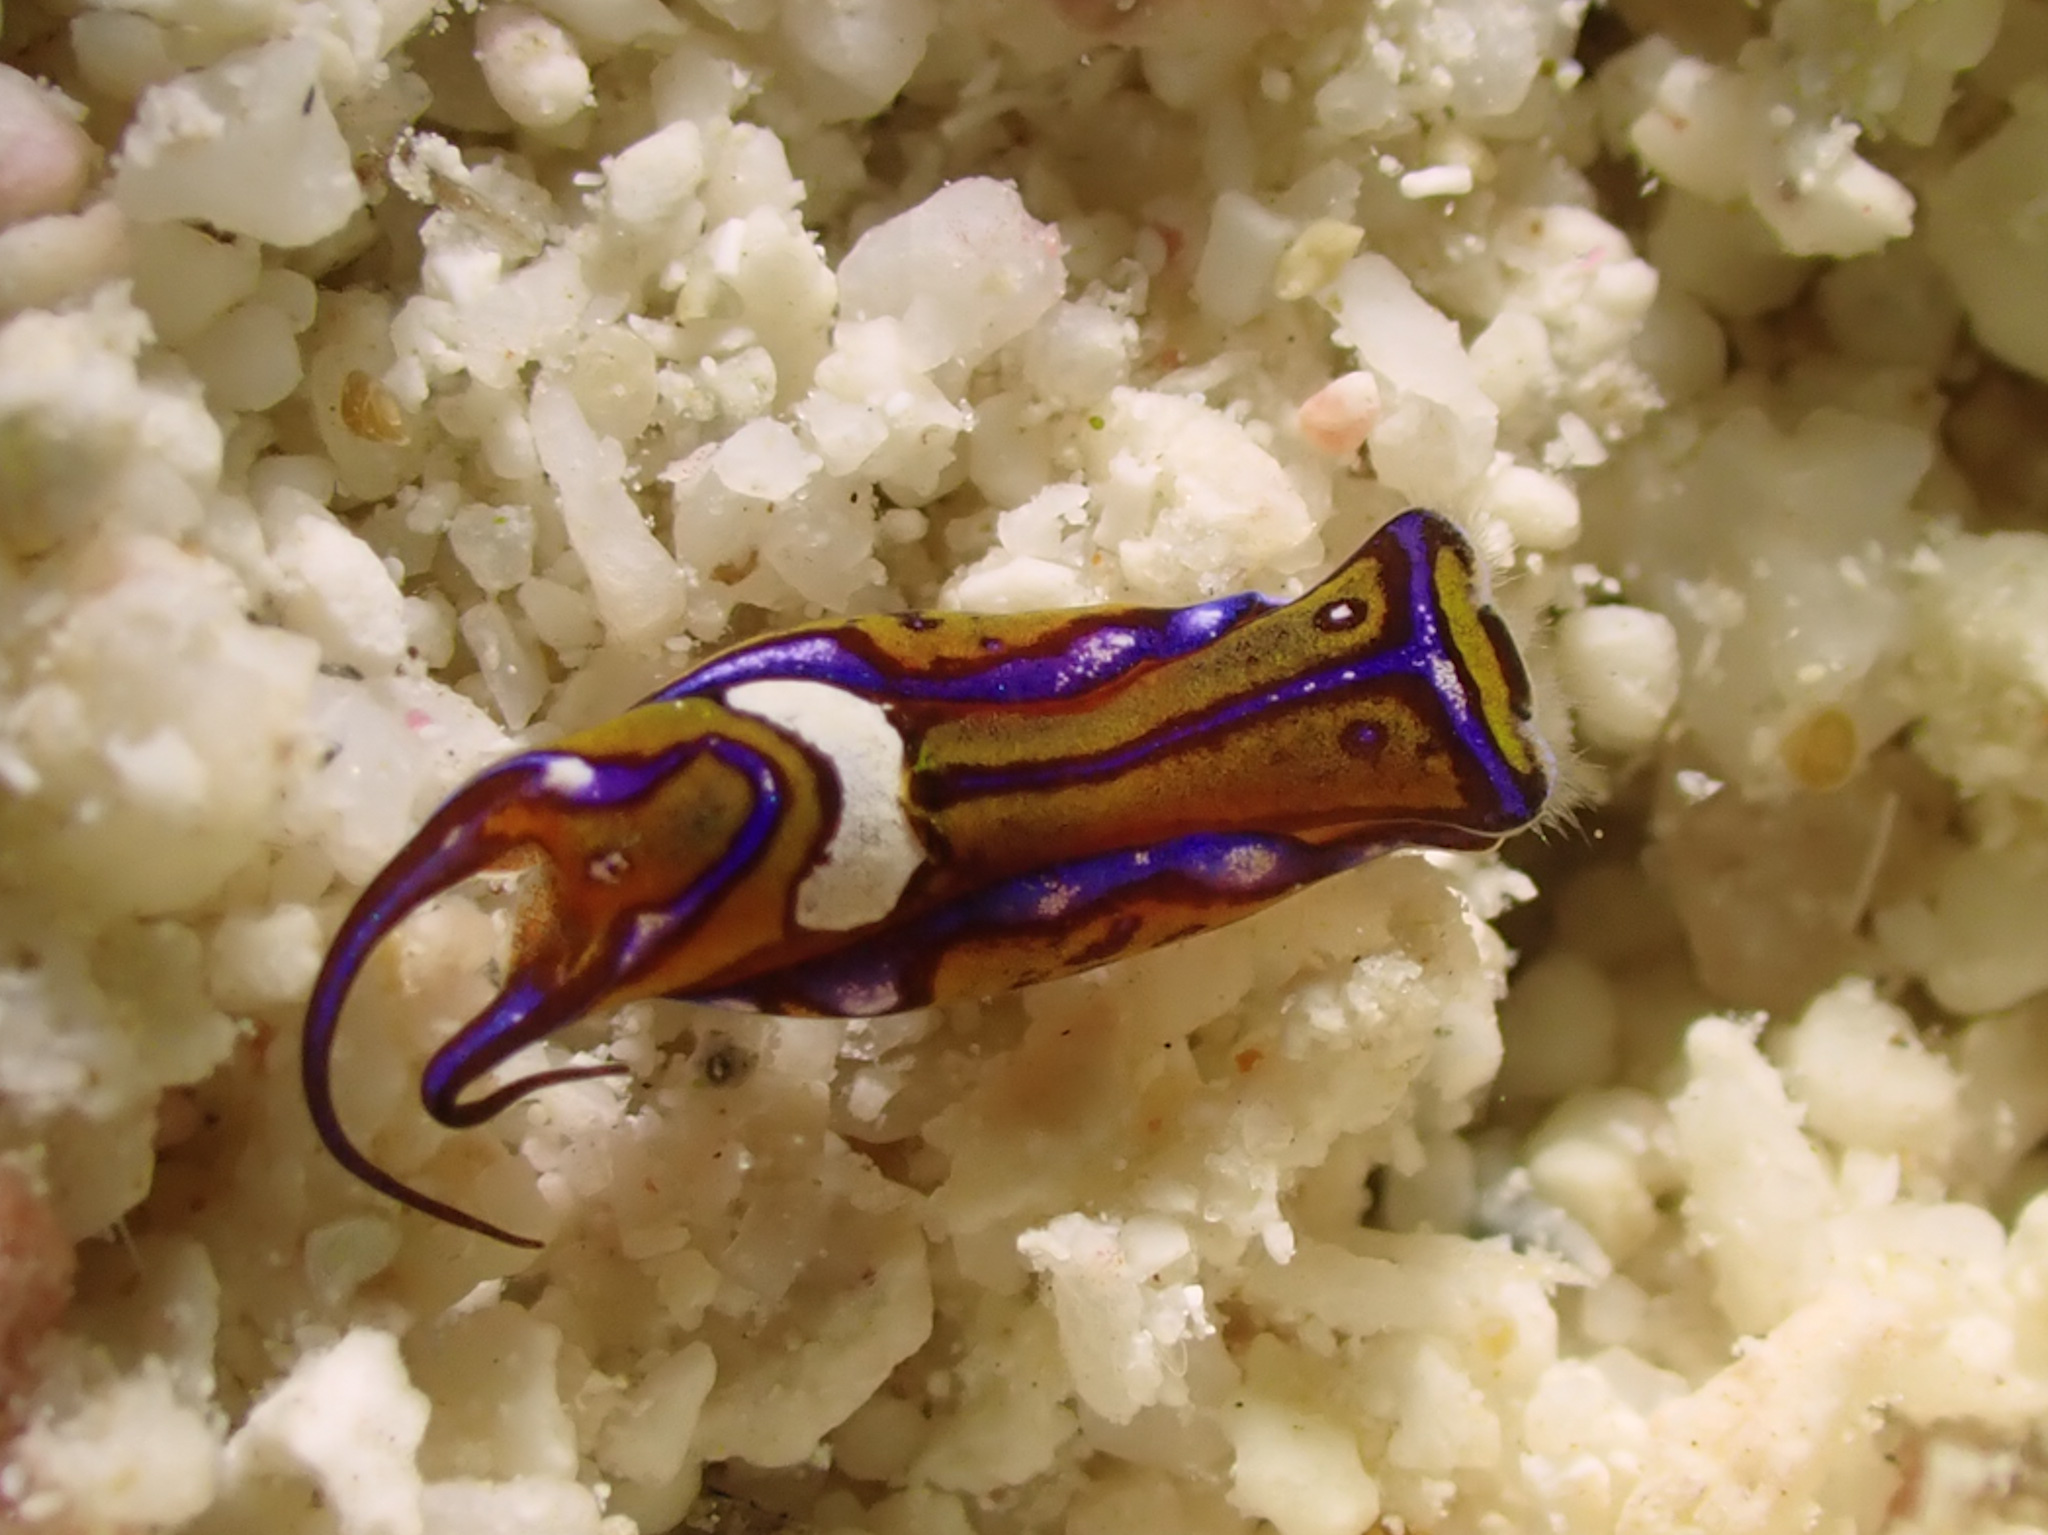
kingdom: Animalia
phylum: Mollusca
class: Gastropoda
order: Cephalaspidea
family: Aglajidae
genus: Chelidonura
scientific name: Chelidonura hirundinina
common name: Leech headshield slug
